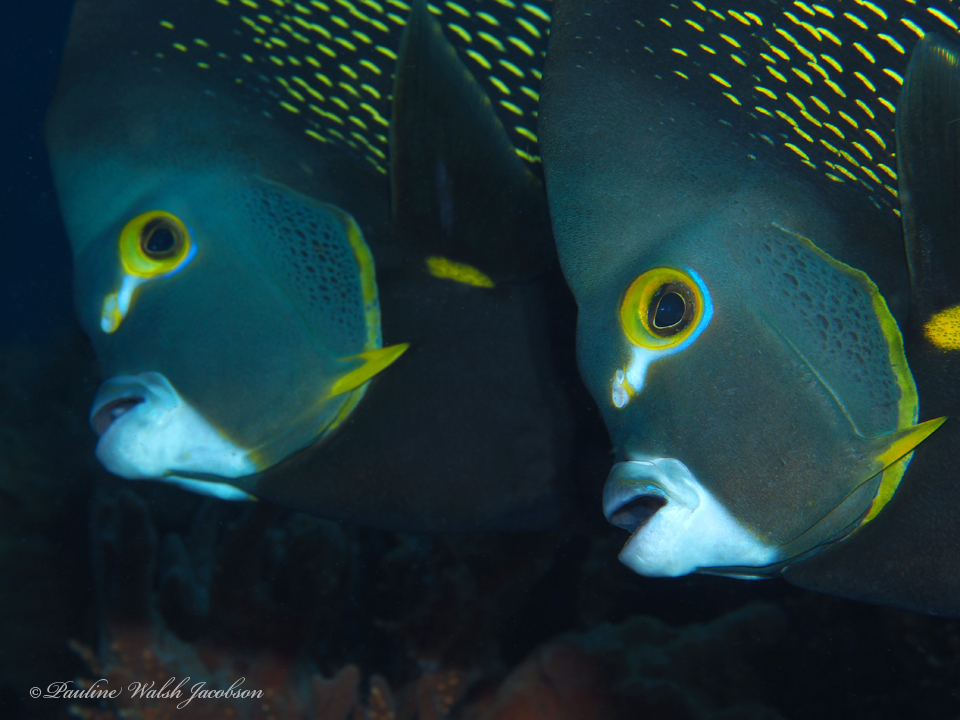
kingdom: Animalia
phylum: Chordata
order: Perciformes
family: Pomacanthidae
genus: Pomacanthus
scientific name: Pomacanthus paru
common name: French angelfish
